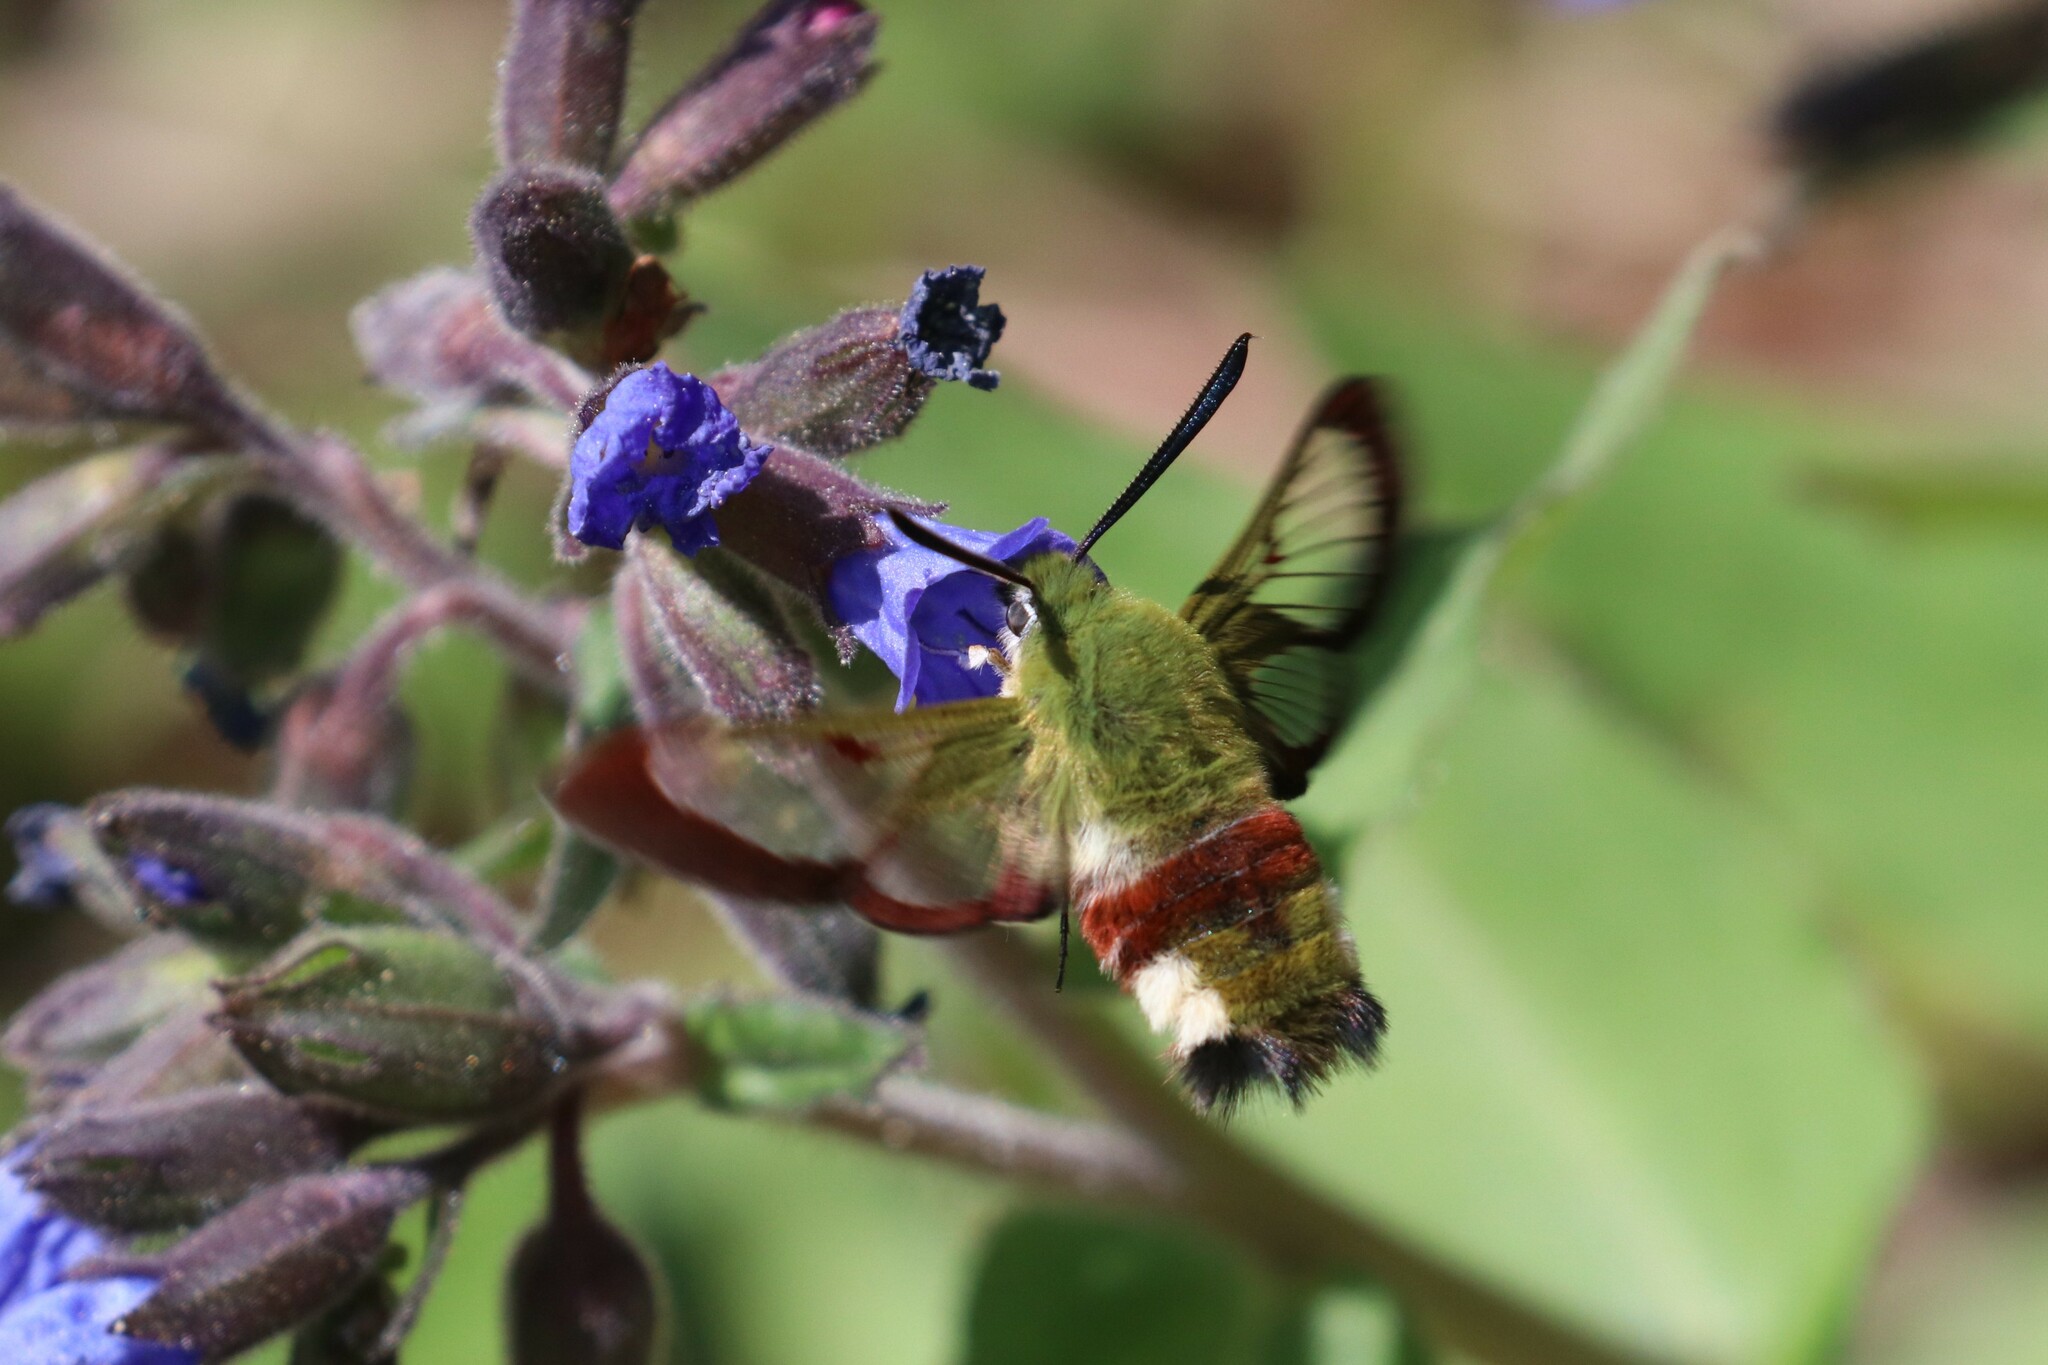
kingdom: Animalia
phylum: Arthropoda
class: Insecta
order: Lepidoptera
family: Sphingidae
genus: Hemaris
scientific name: Hemaris fuciformis
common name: Broad-bordered bee hawk-moth
